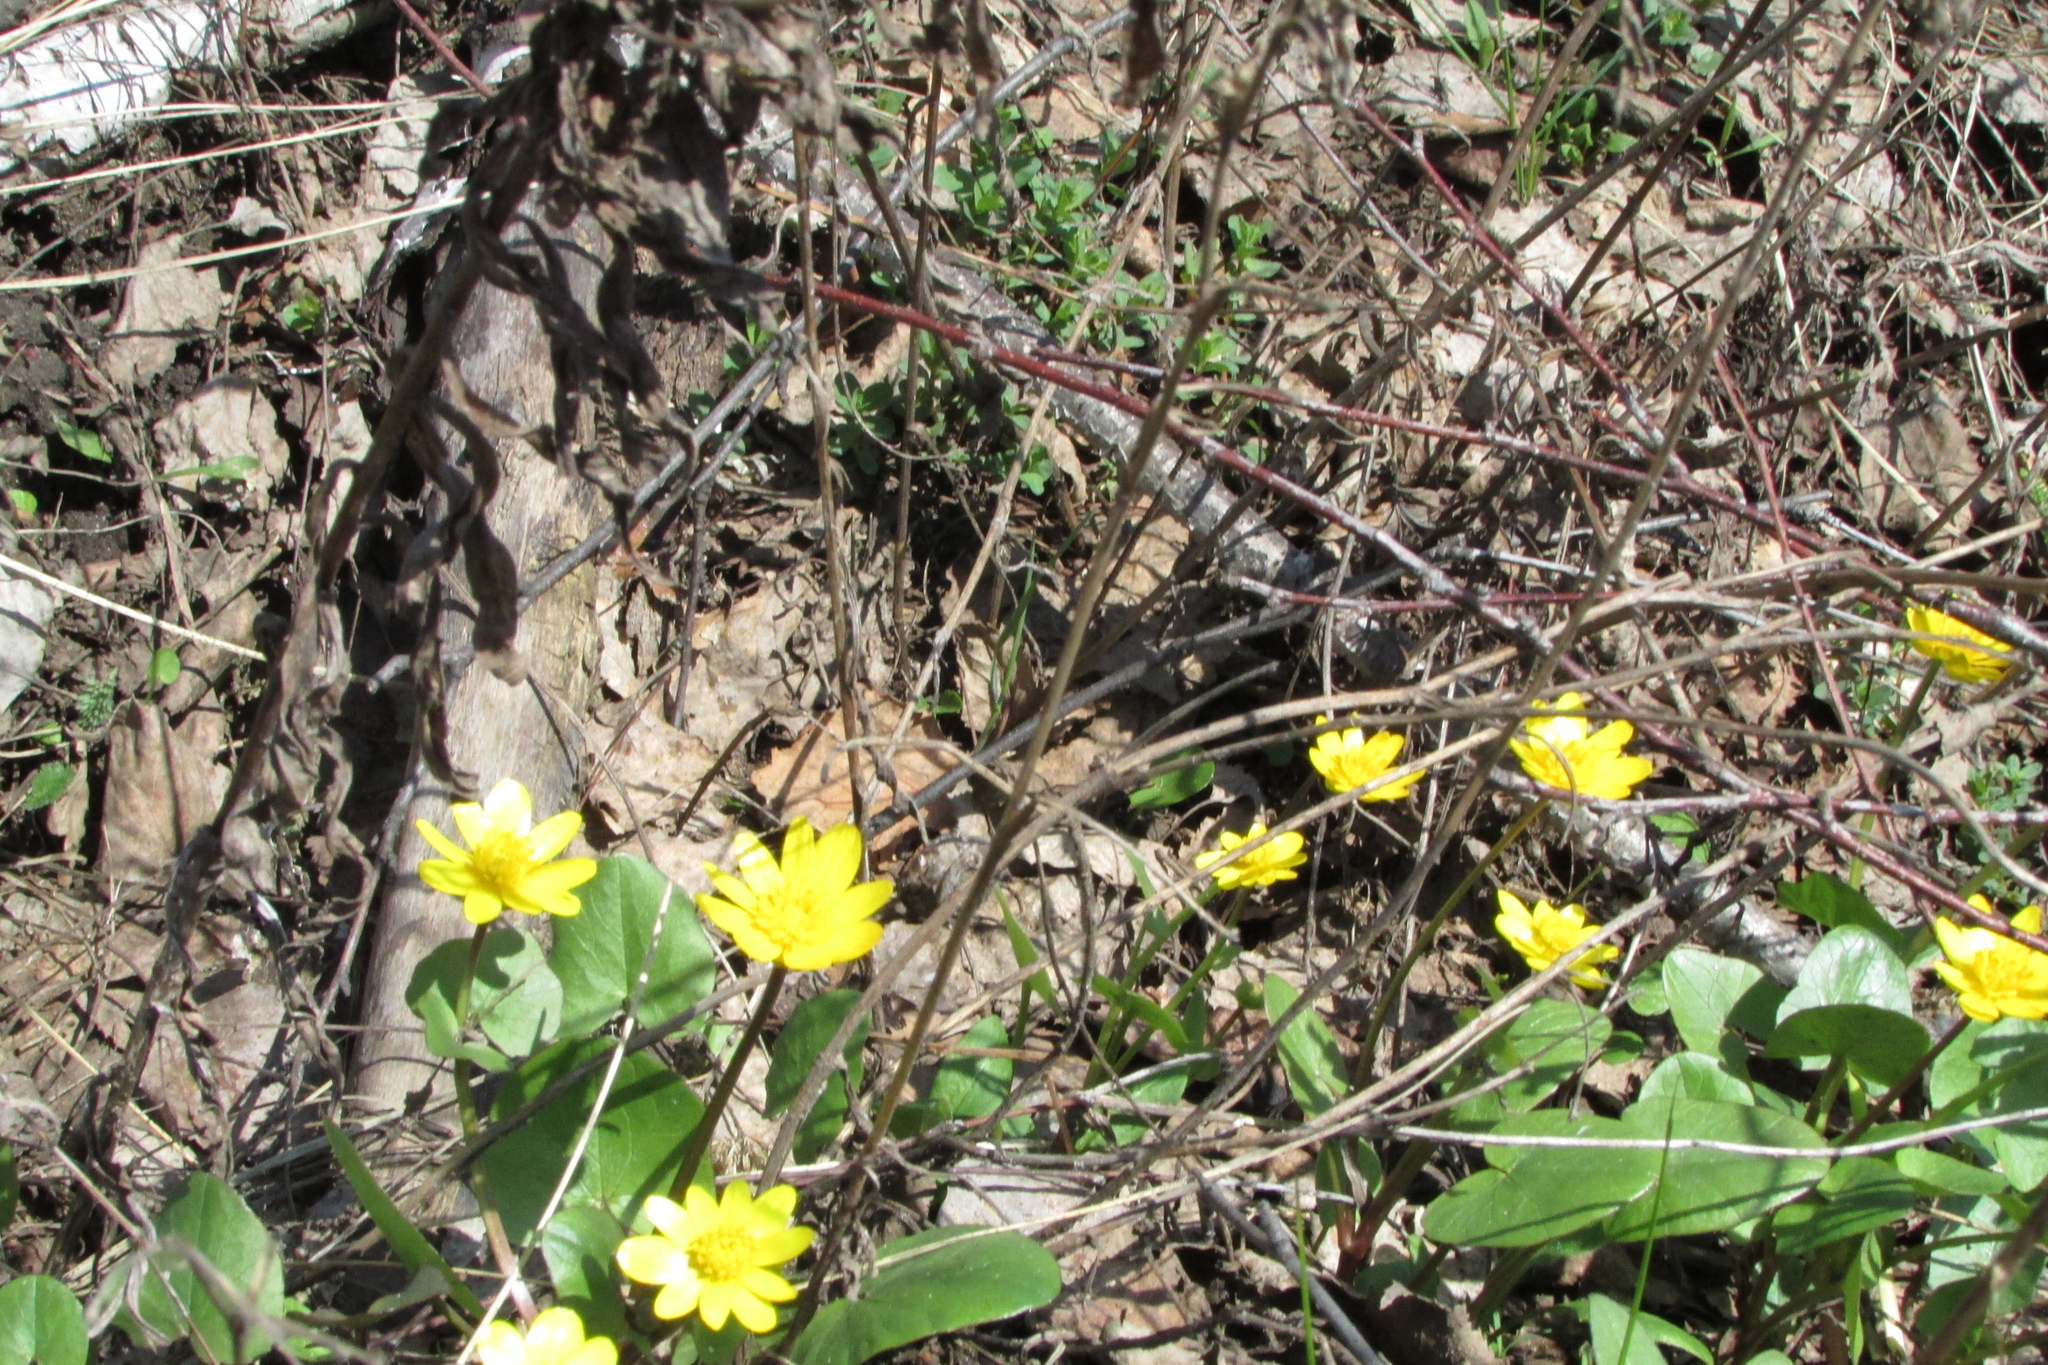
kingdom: Plantae
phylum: Tracheophyta
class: Magnoliopsida
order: Ranunculales
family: Ranunculaceae
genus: Ficaria
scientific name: Ficaria verna
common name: Lesser celandine
